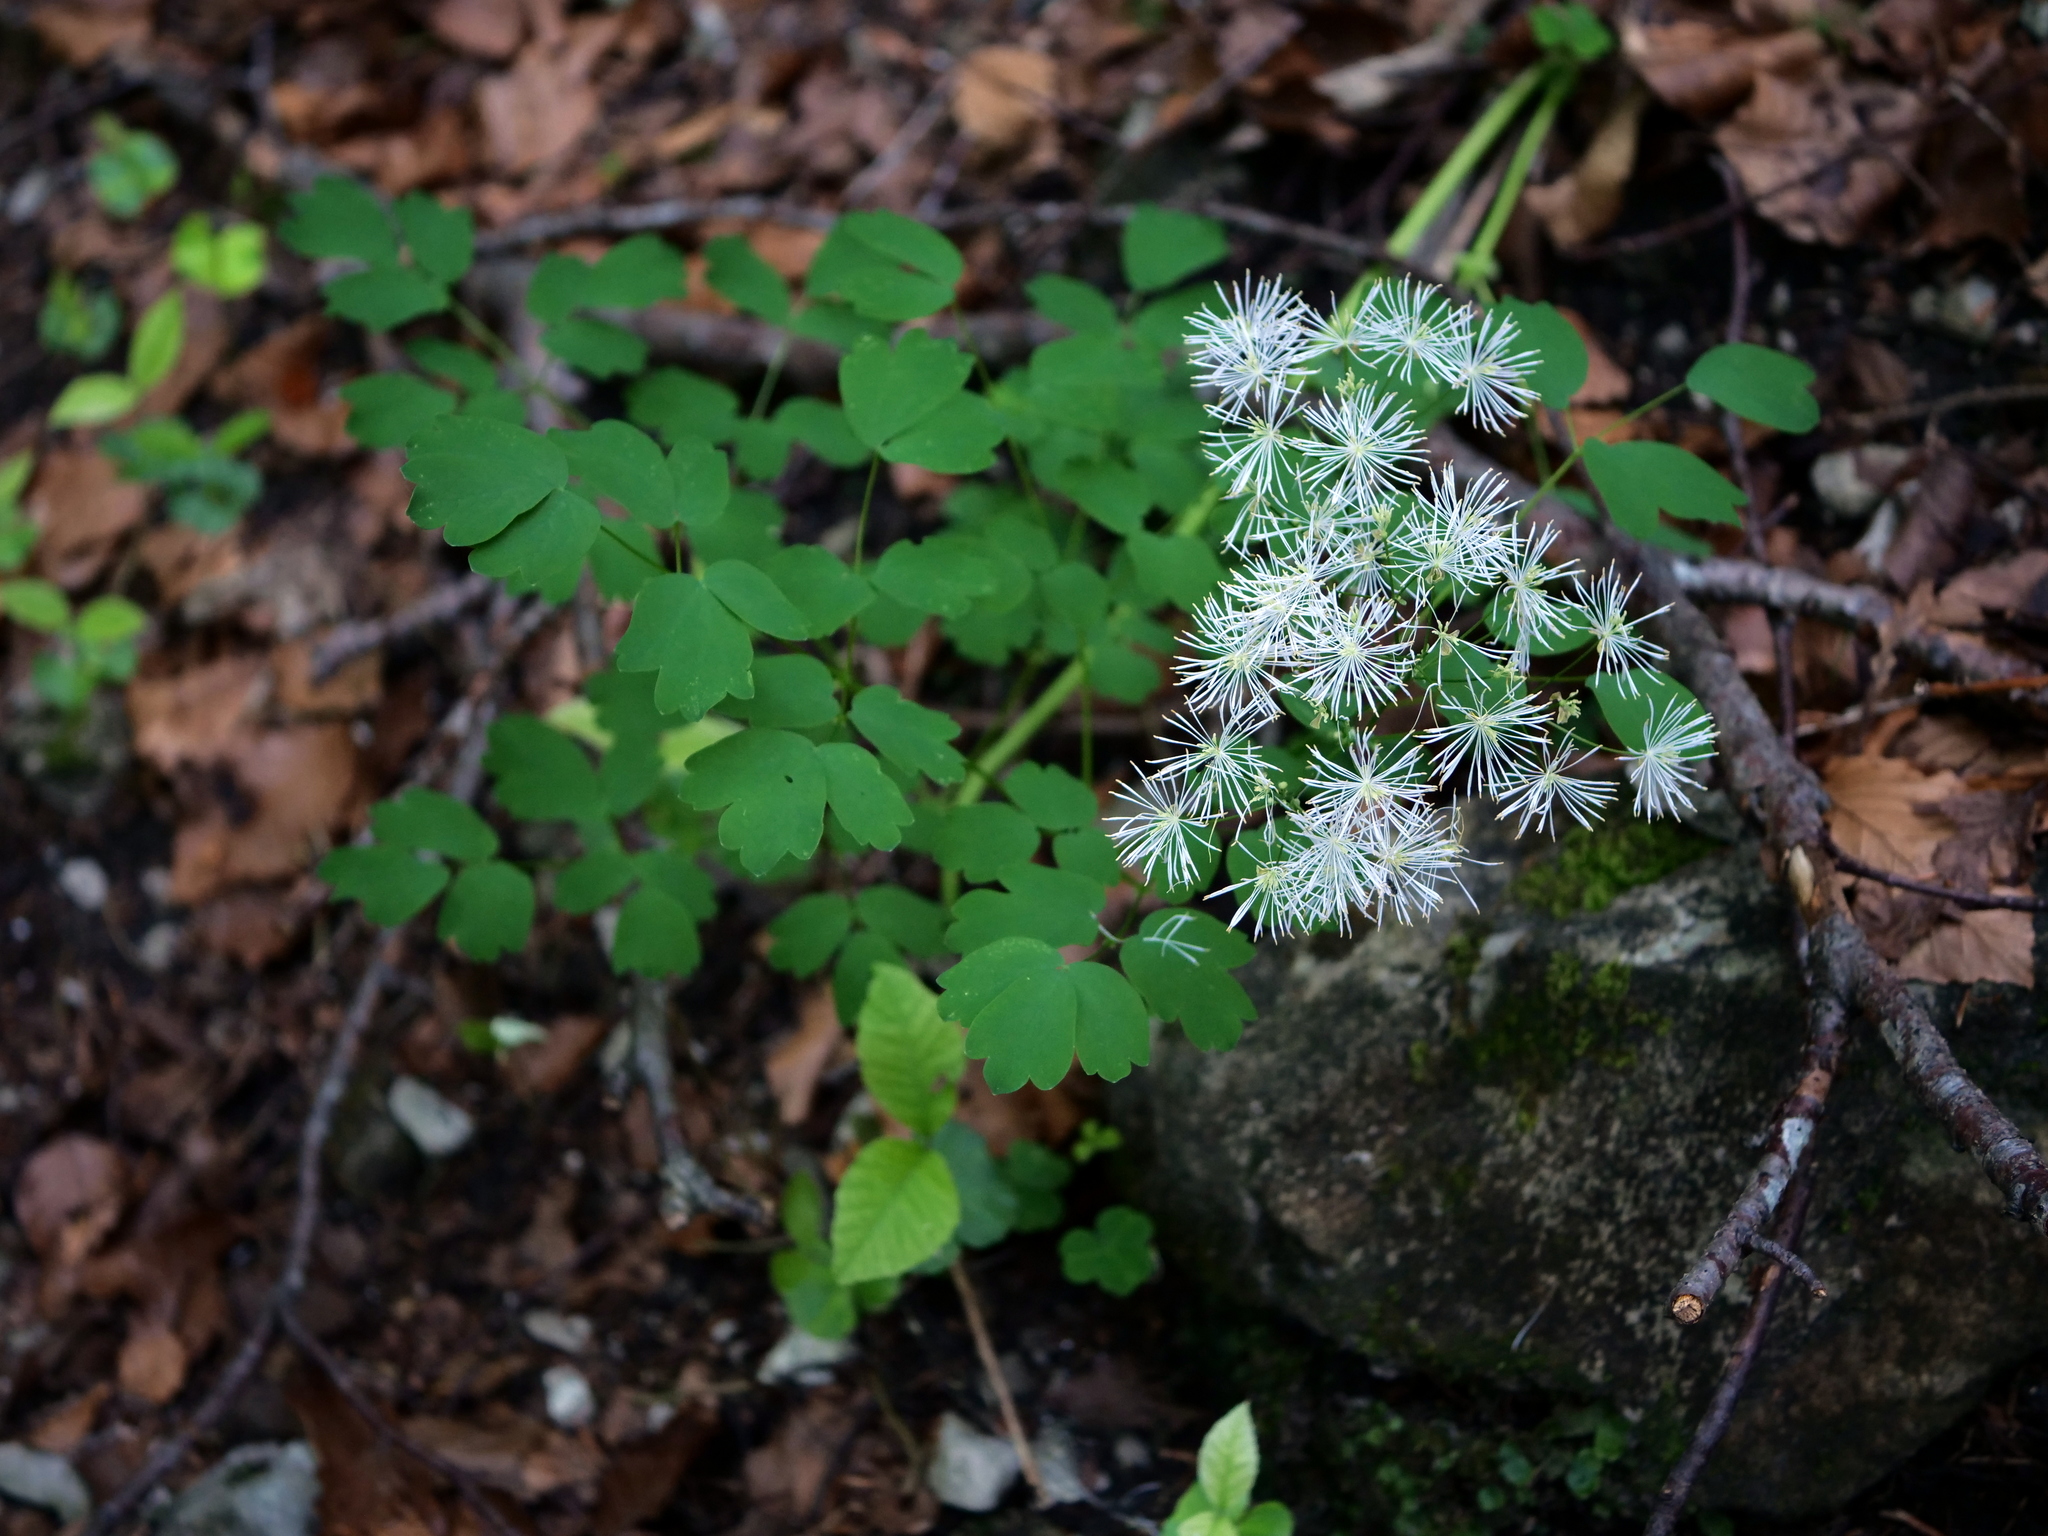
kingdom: Plantae
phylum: Tracheophyta
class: Magnoliopsida
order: Ranunculales
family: Ranunculaceae
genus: Thalictrum
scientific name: Thalictrum aquilegiifolium
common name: French meadow-rue
